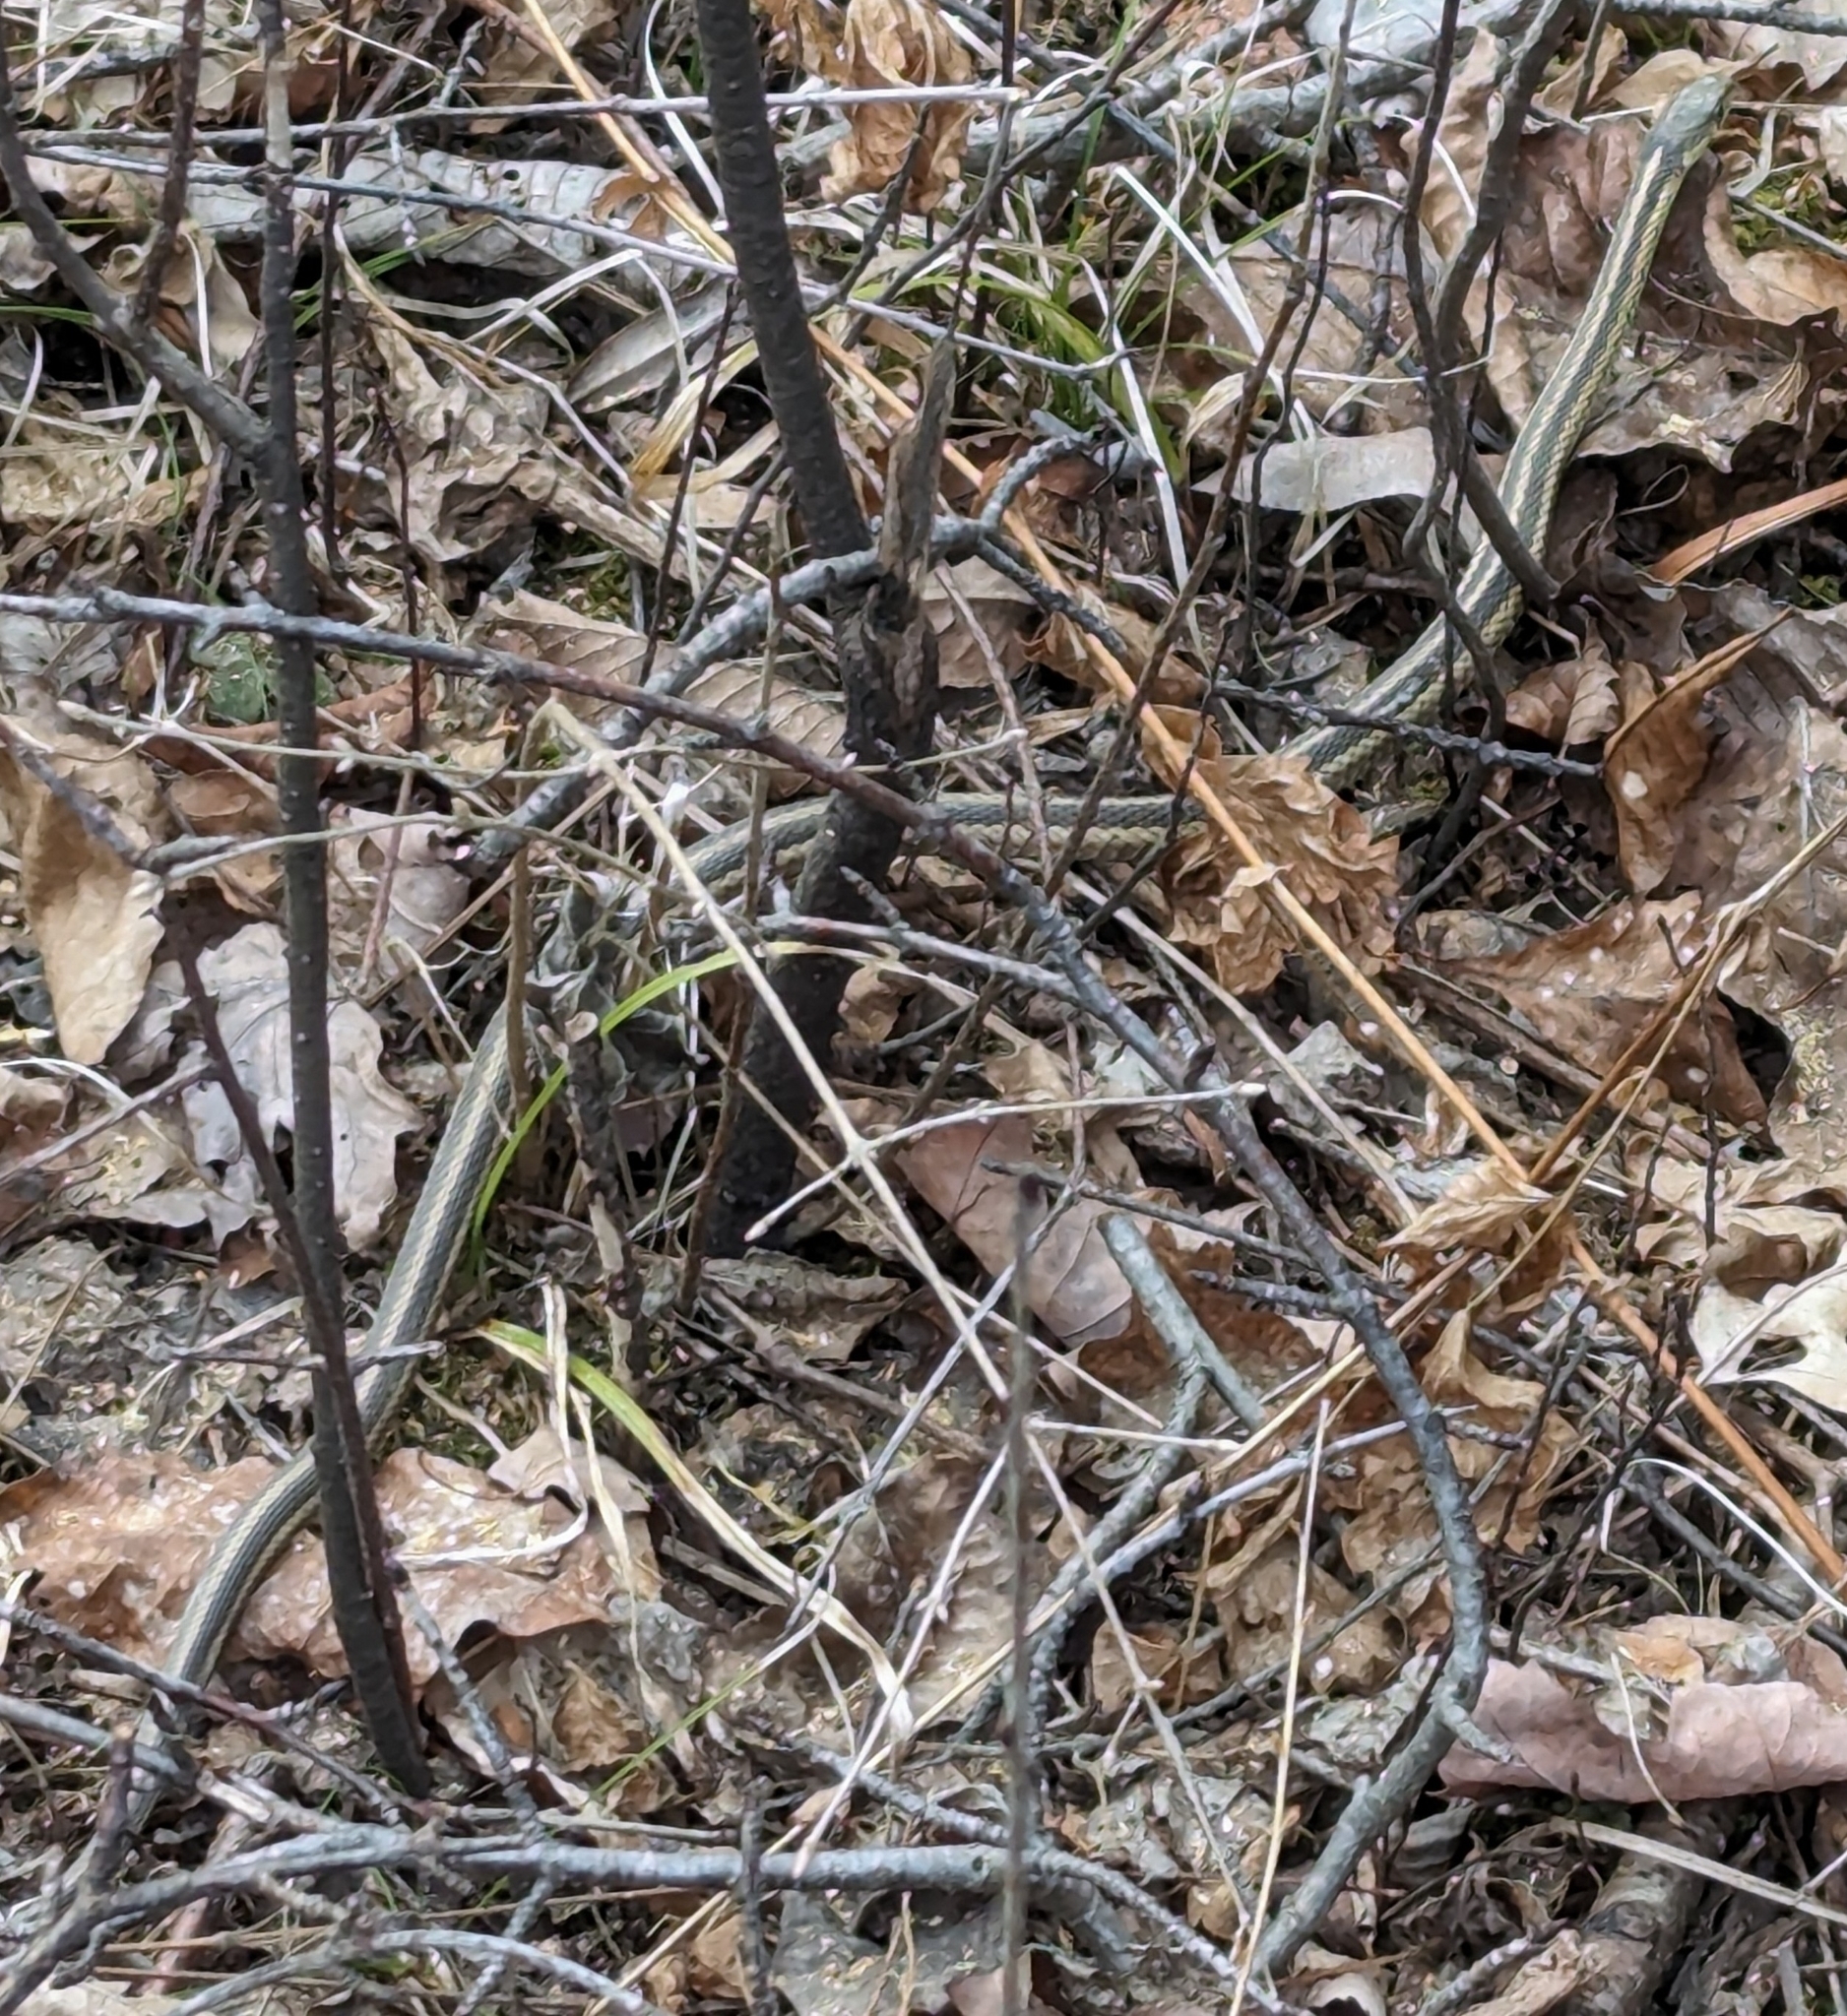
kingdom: Animalia
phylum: Chordata
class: Squamata
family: Colubridae
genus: Thamnophis
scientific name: Thamnophis sirtalis
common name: Common garter snake
